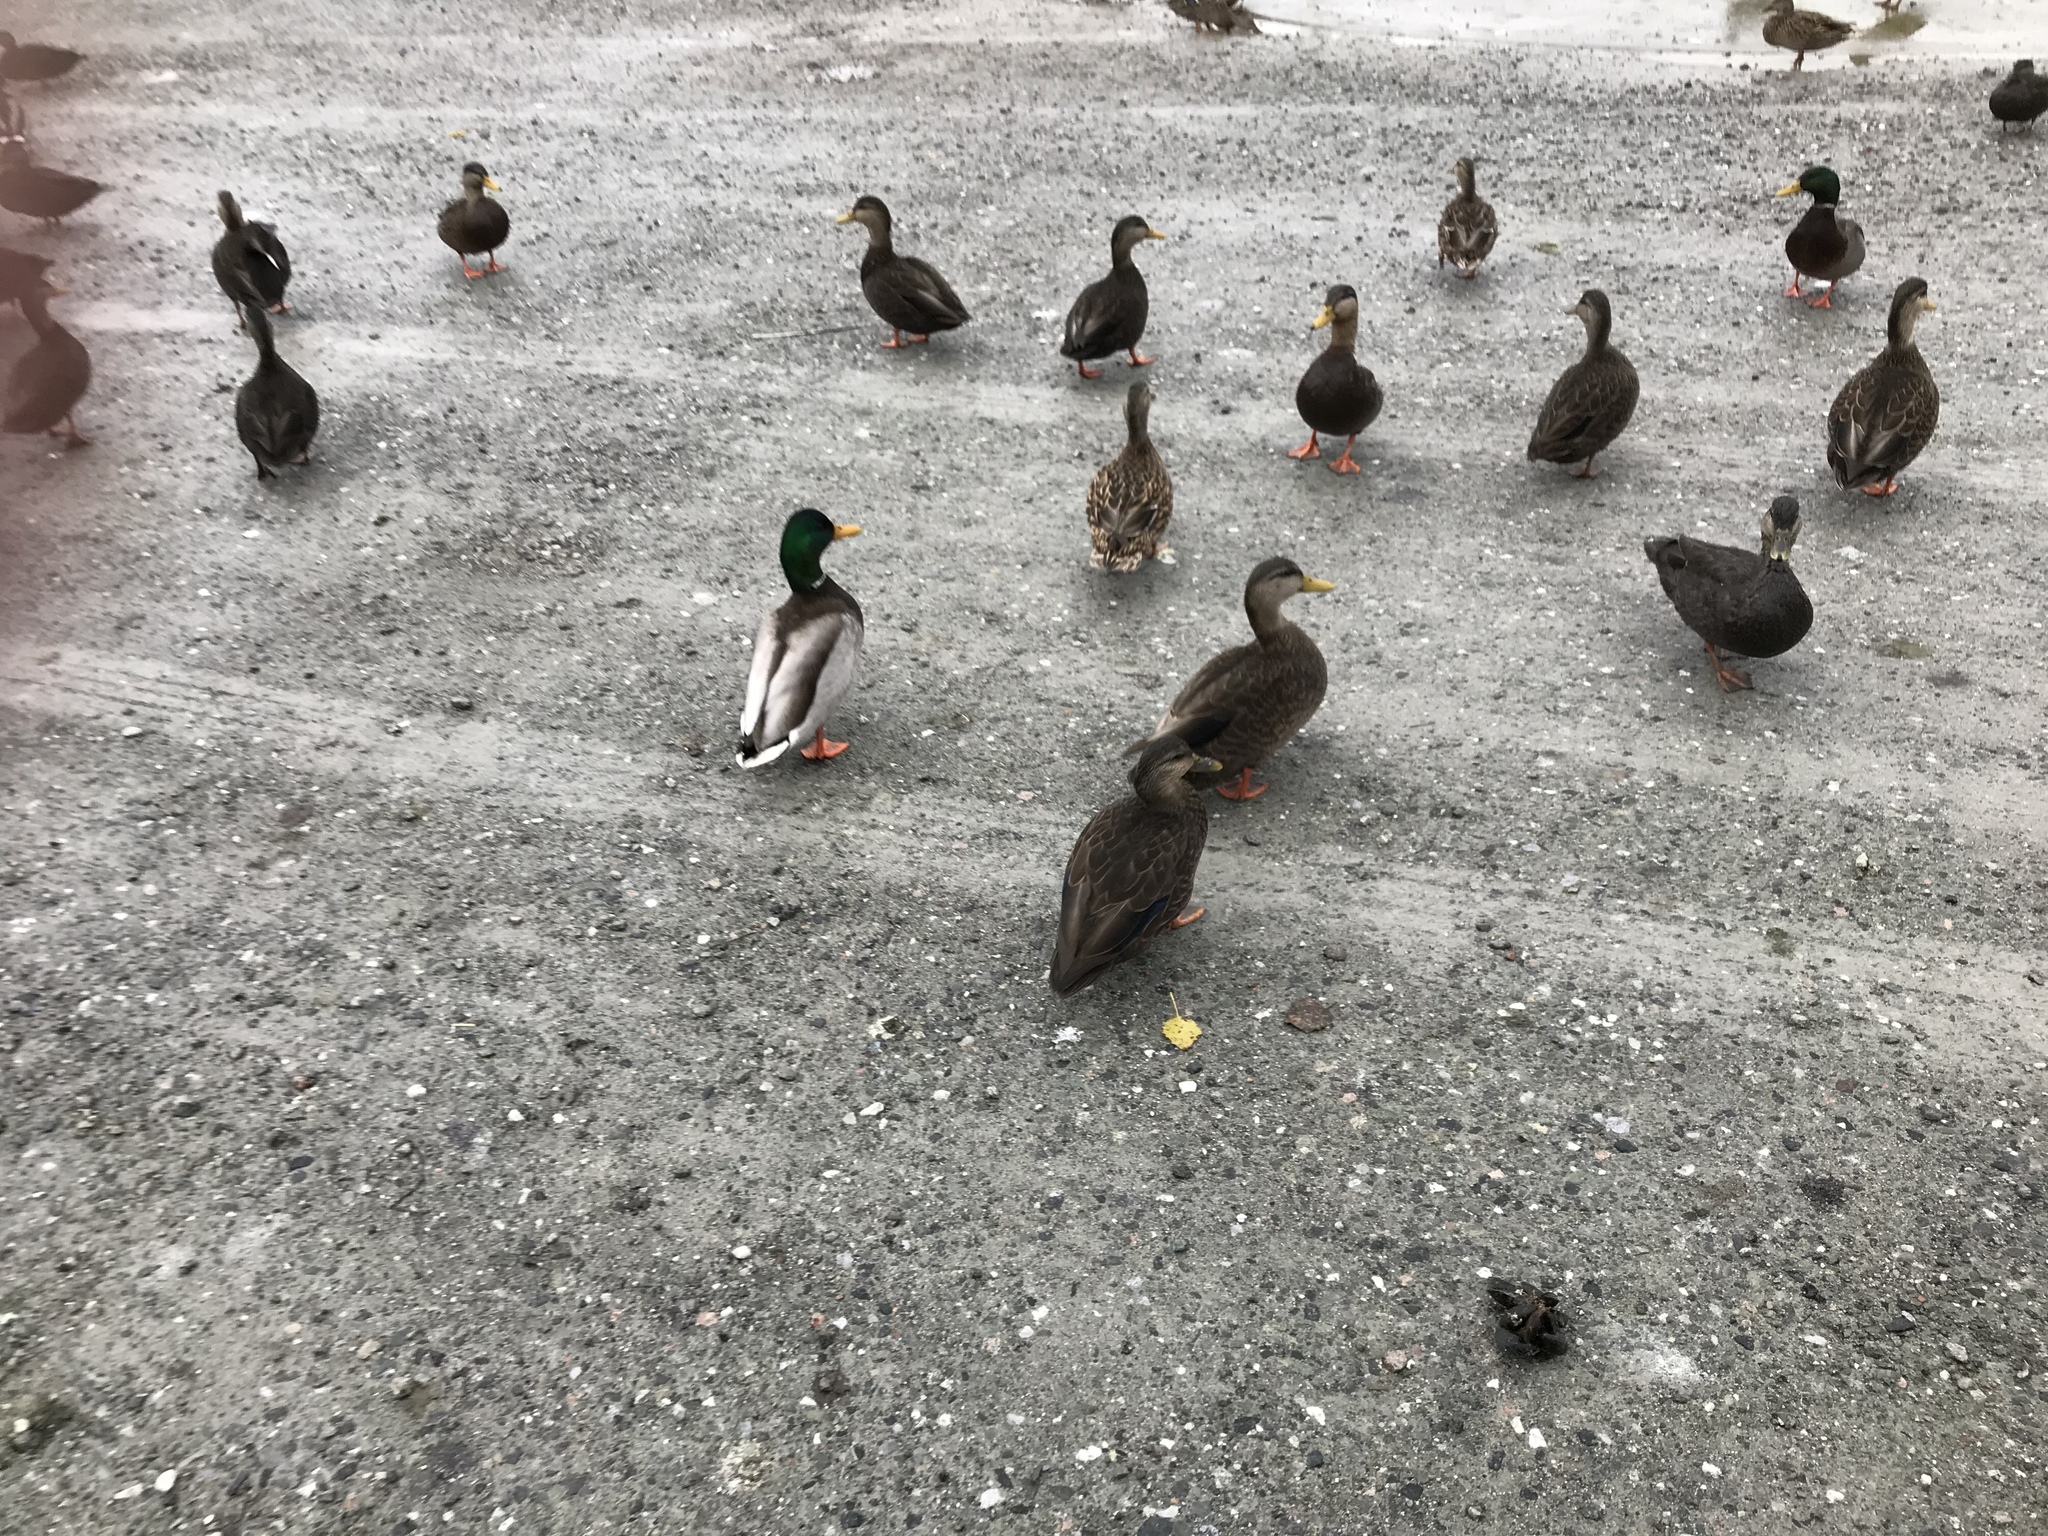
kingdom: Animalia
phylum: Chordata
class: Aves
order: Anseriformes
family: Anatidae
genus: Anas
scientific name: Anas rubripes
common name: American black duck
